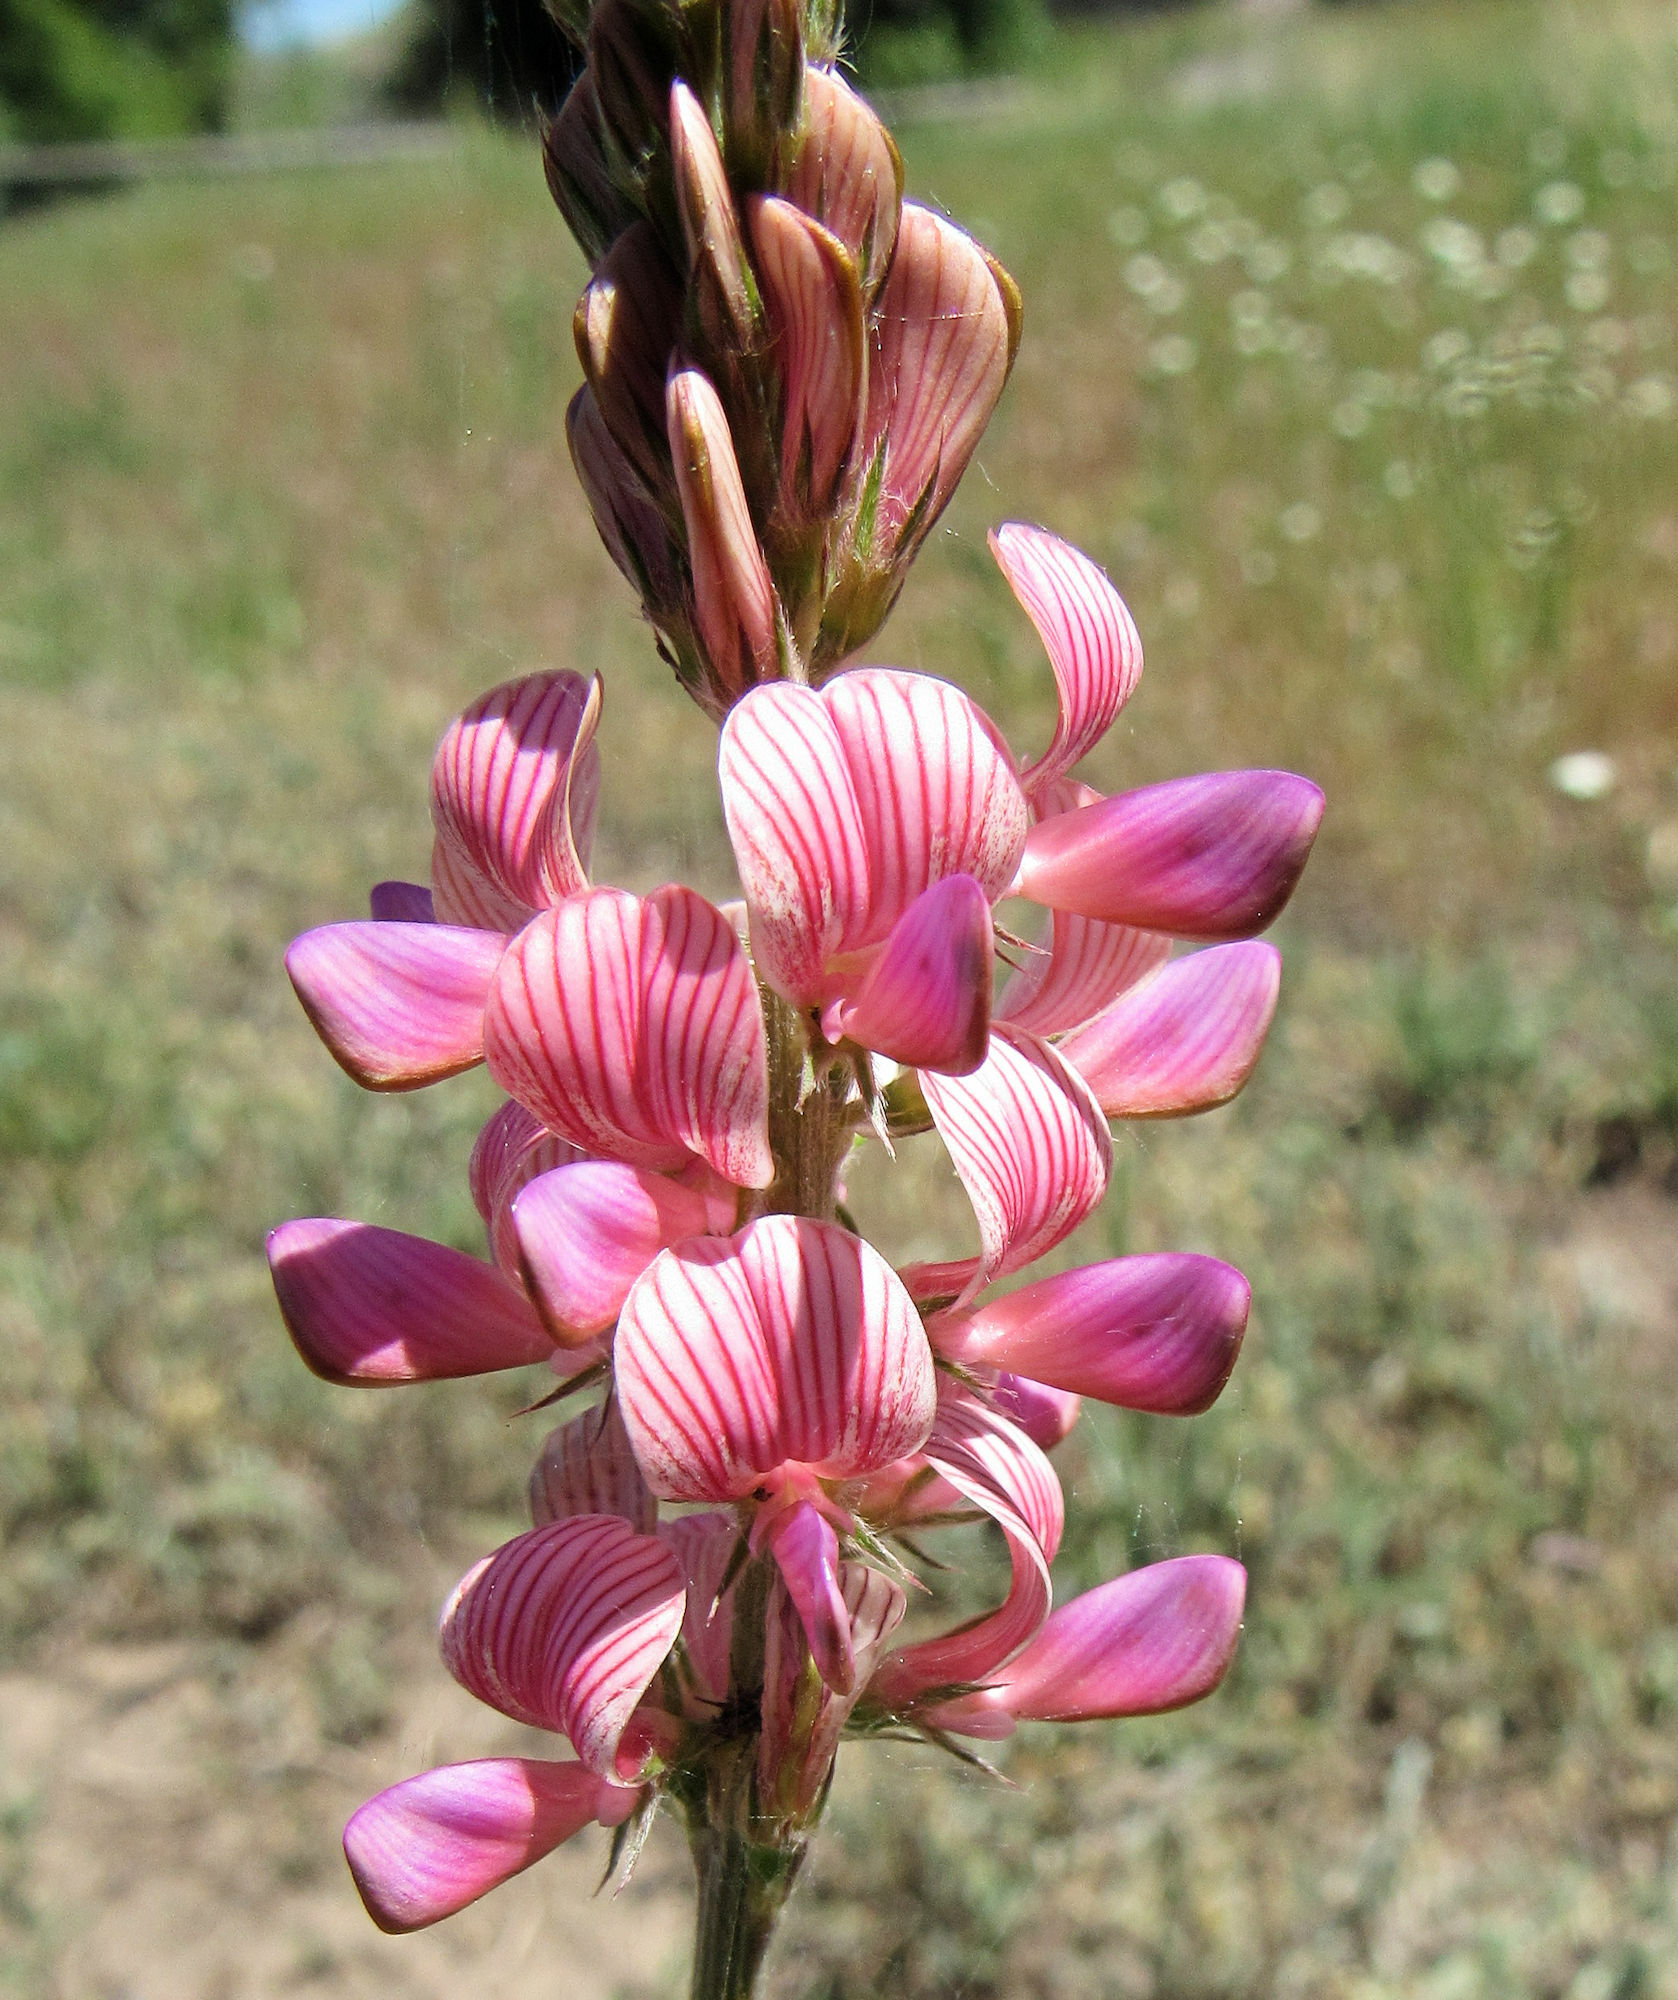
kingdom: Plantae
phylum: Tracheophyta
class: Magnoliopsida
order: Fabales
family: Fabaceae
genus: Onobrychis
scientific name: Onobrychis viciifolia
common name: Sainfoin
